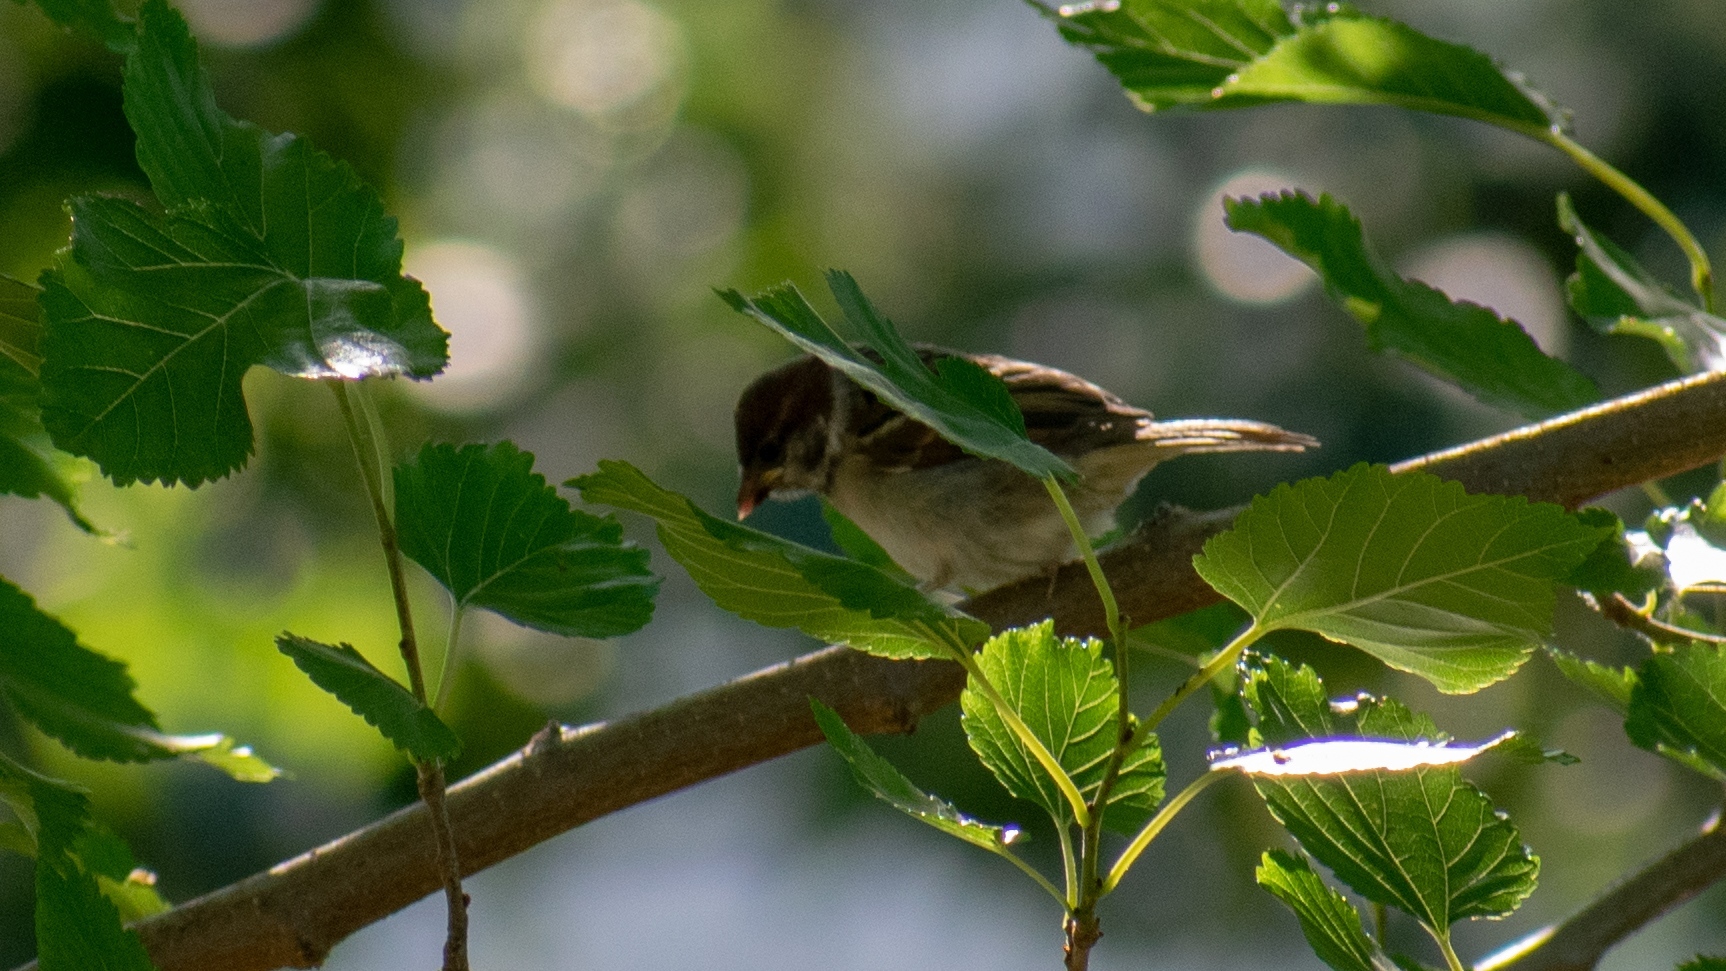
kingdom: Animalia
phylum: Chordata
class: Aves
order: Passeriformes
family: Passeridae
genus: Passer
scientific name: Passer montanus
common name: Eurasian tree sparrow
